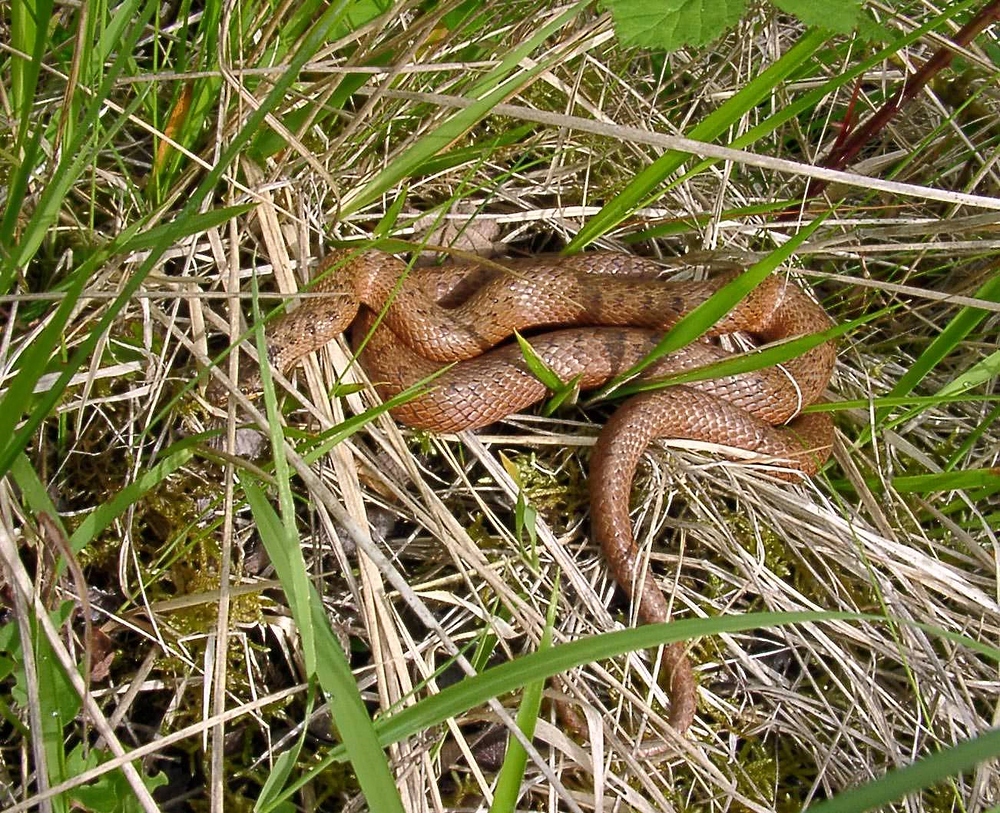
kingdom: Animalia
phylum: Chordata
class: Squamata
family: Colubridae
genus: Coronella
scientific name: Coronella austriaca
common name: Smooth snake
